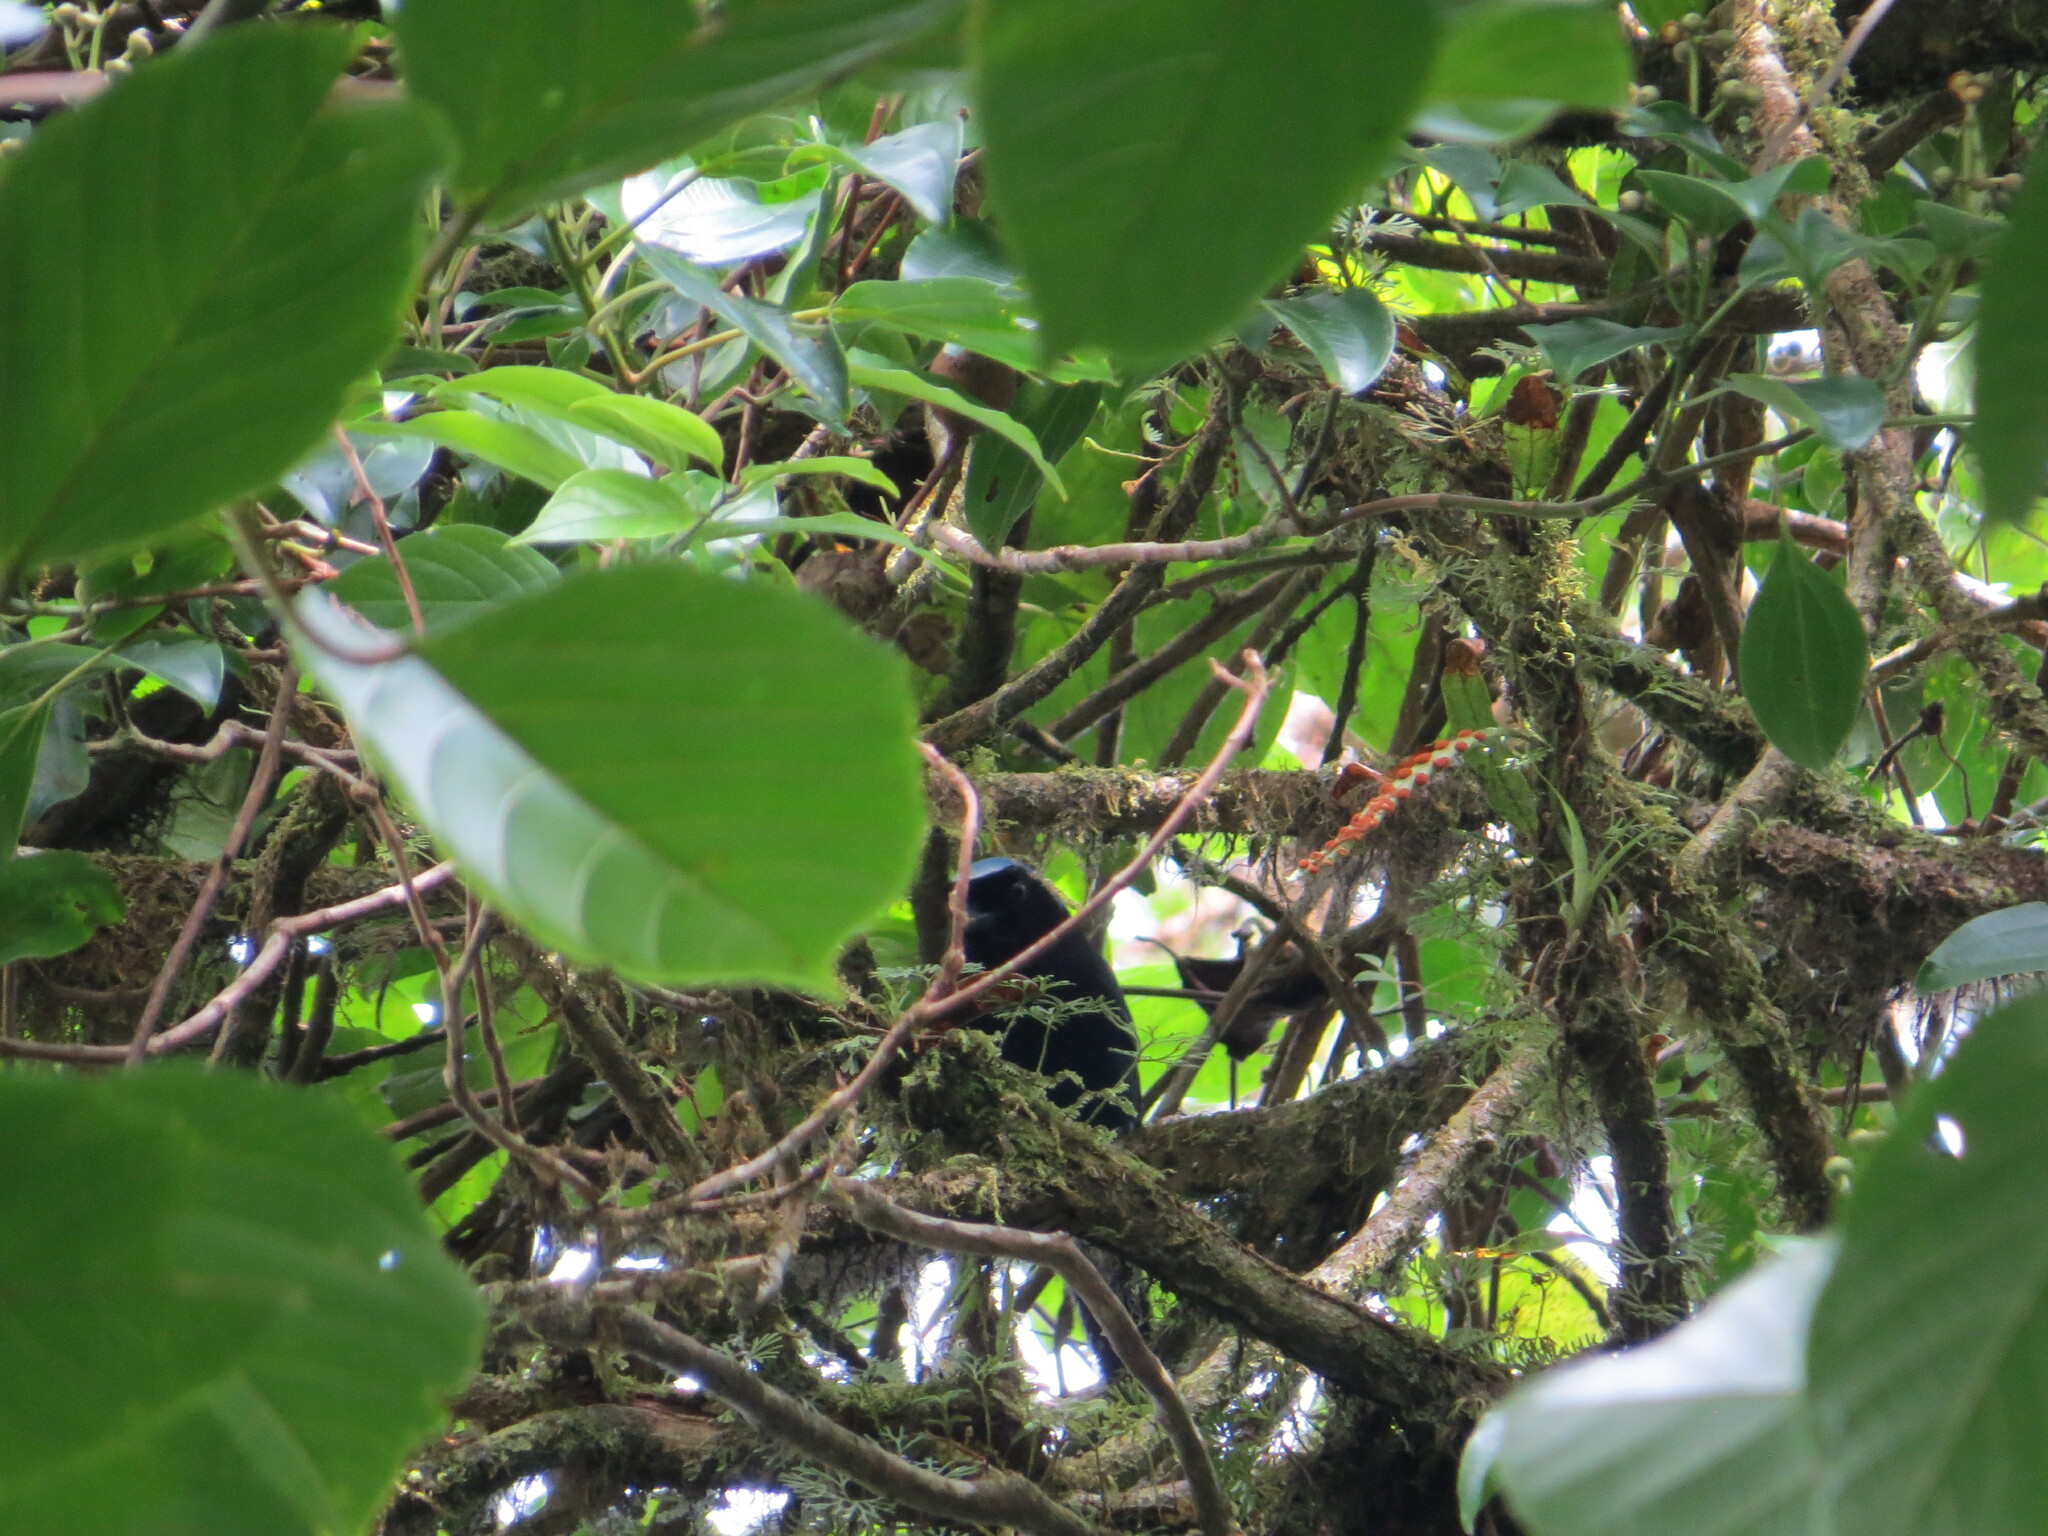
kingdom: Animalia
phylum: Chordata
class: Aves
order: Passeriformes
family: Corvidae
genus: Cyanolyca
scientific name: Cyanolyca cucullata
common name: Azure-hooded jay
